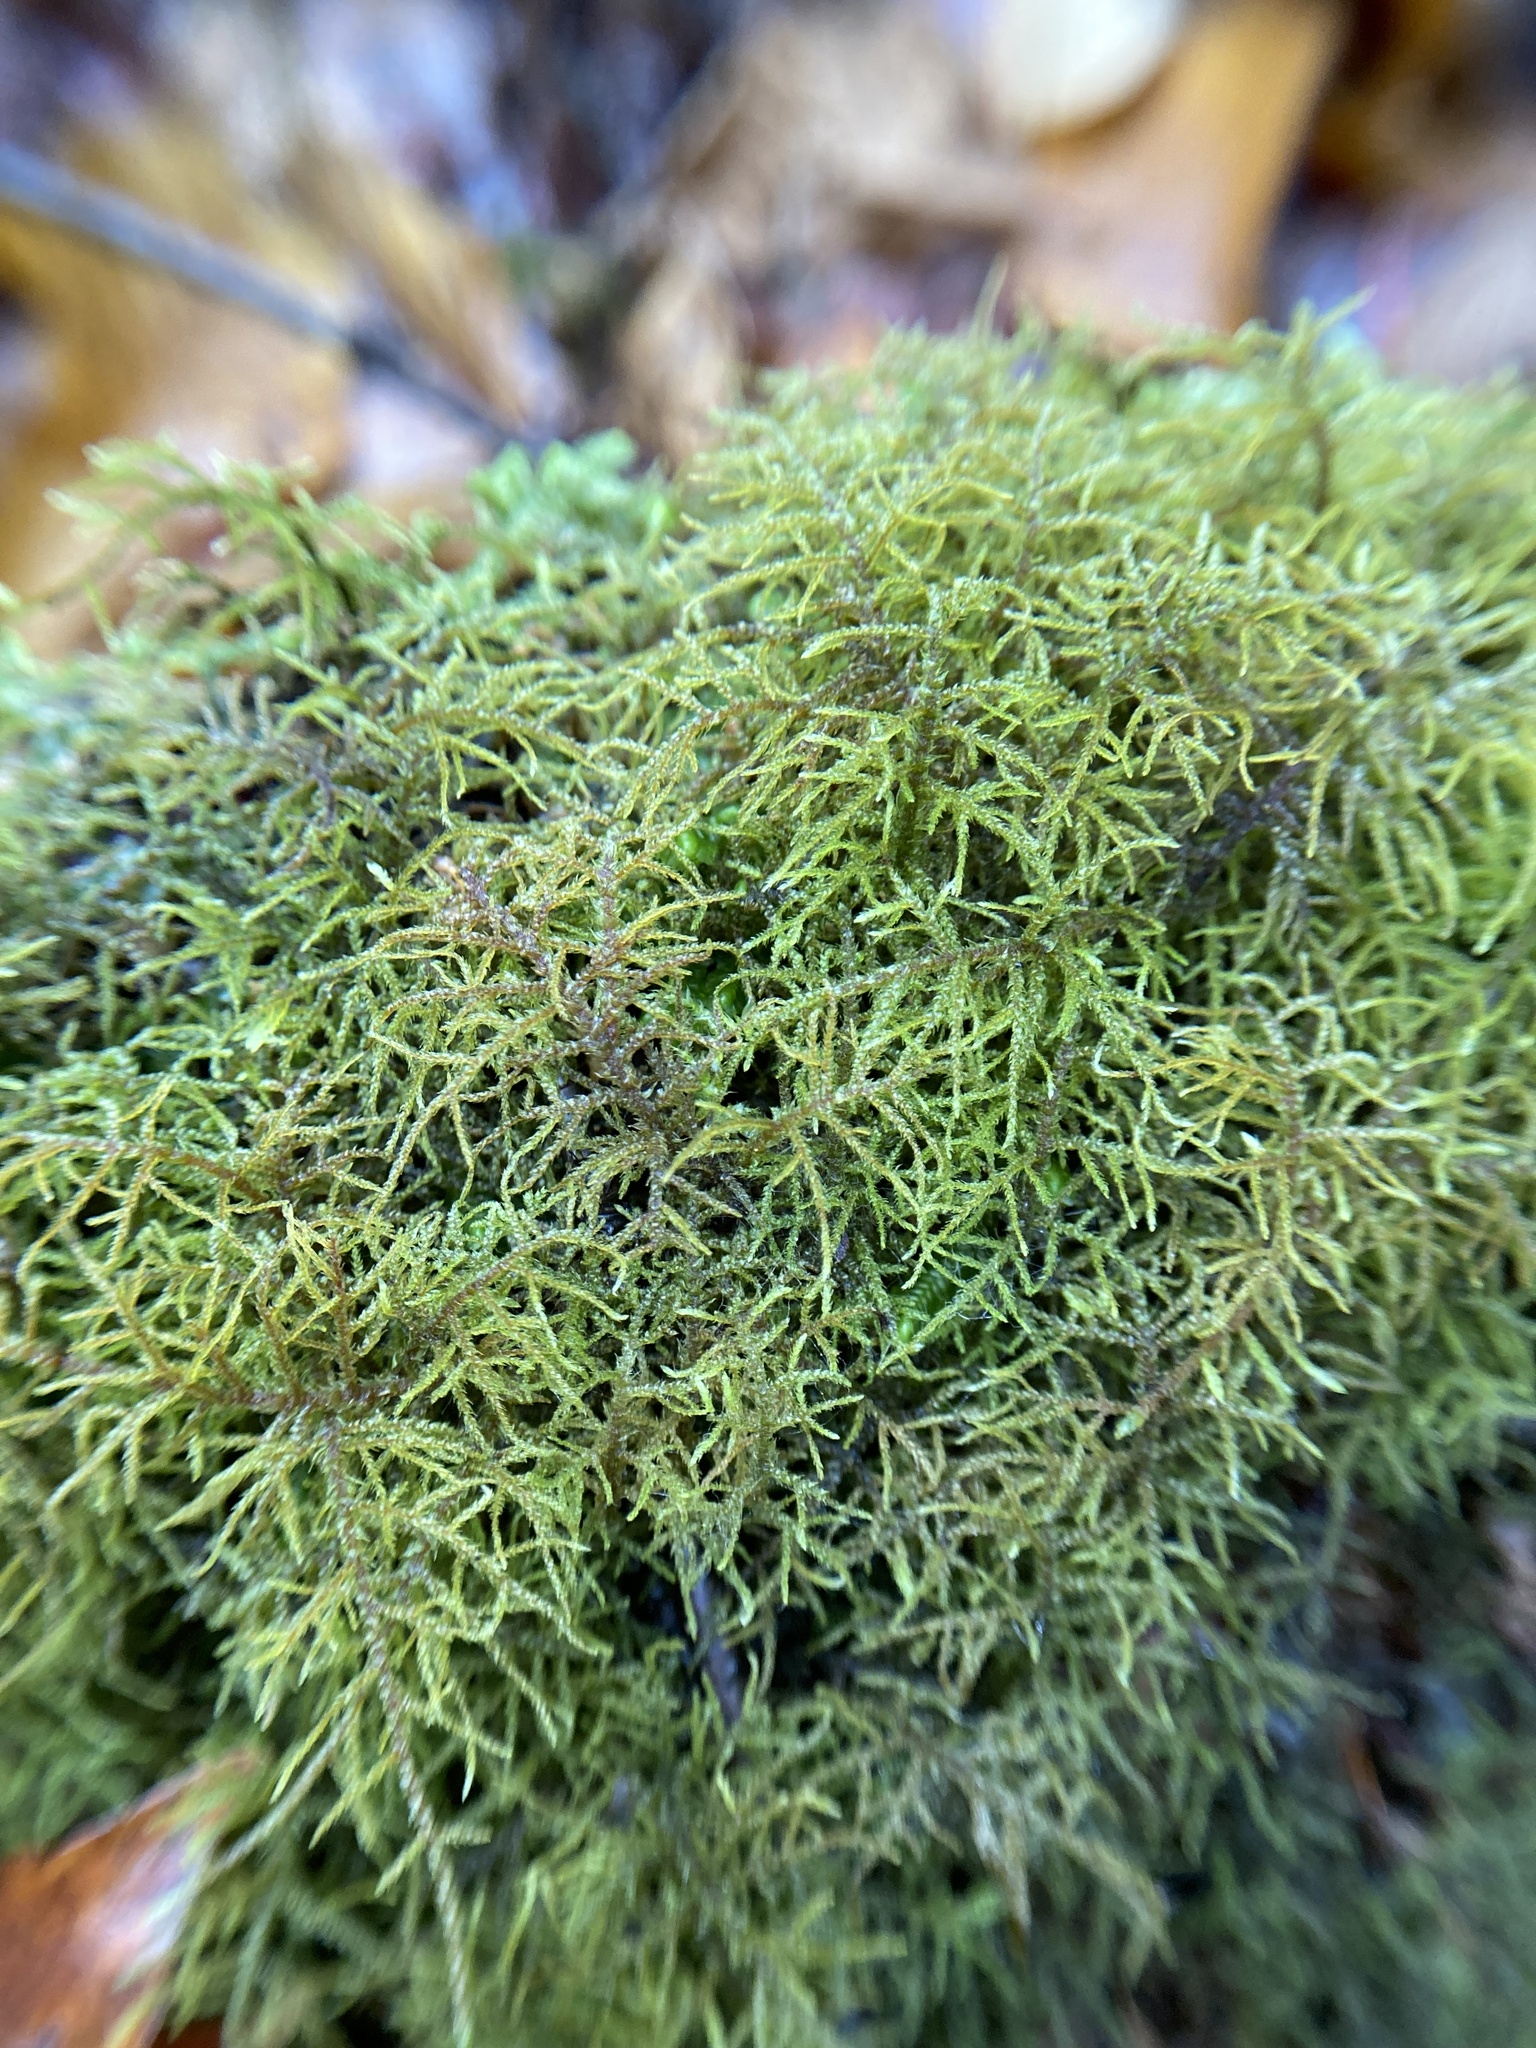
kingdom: Plantae
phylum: Bryophyta
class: Bryopsida
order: Hypnales
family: Hylocomiaceae
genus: Hylocomiastrum
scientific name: Hylocomiastrum umbratum
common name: Shaded woods moss
